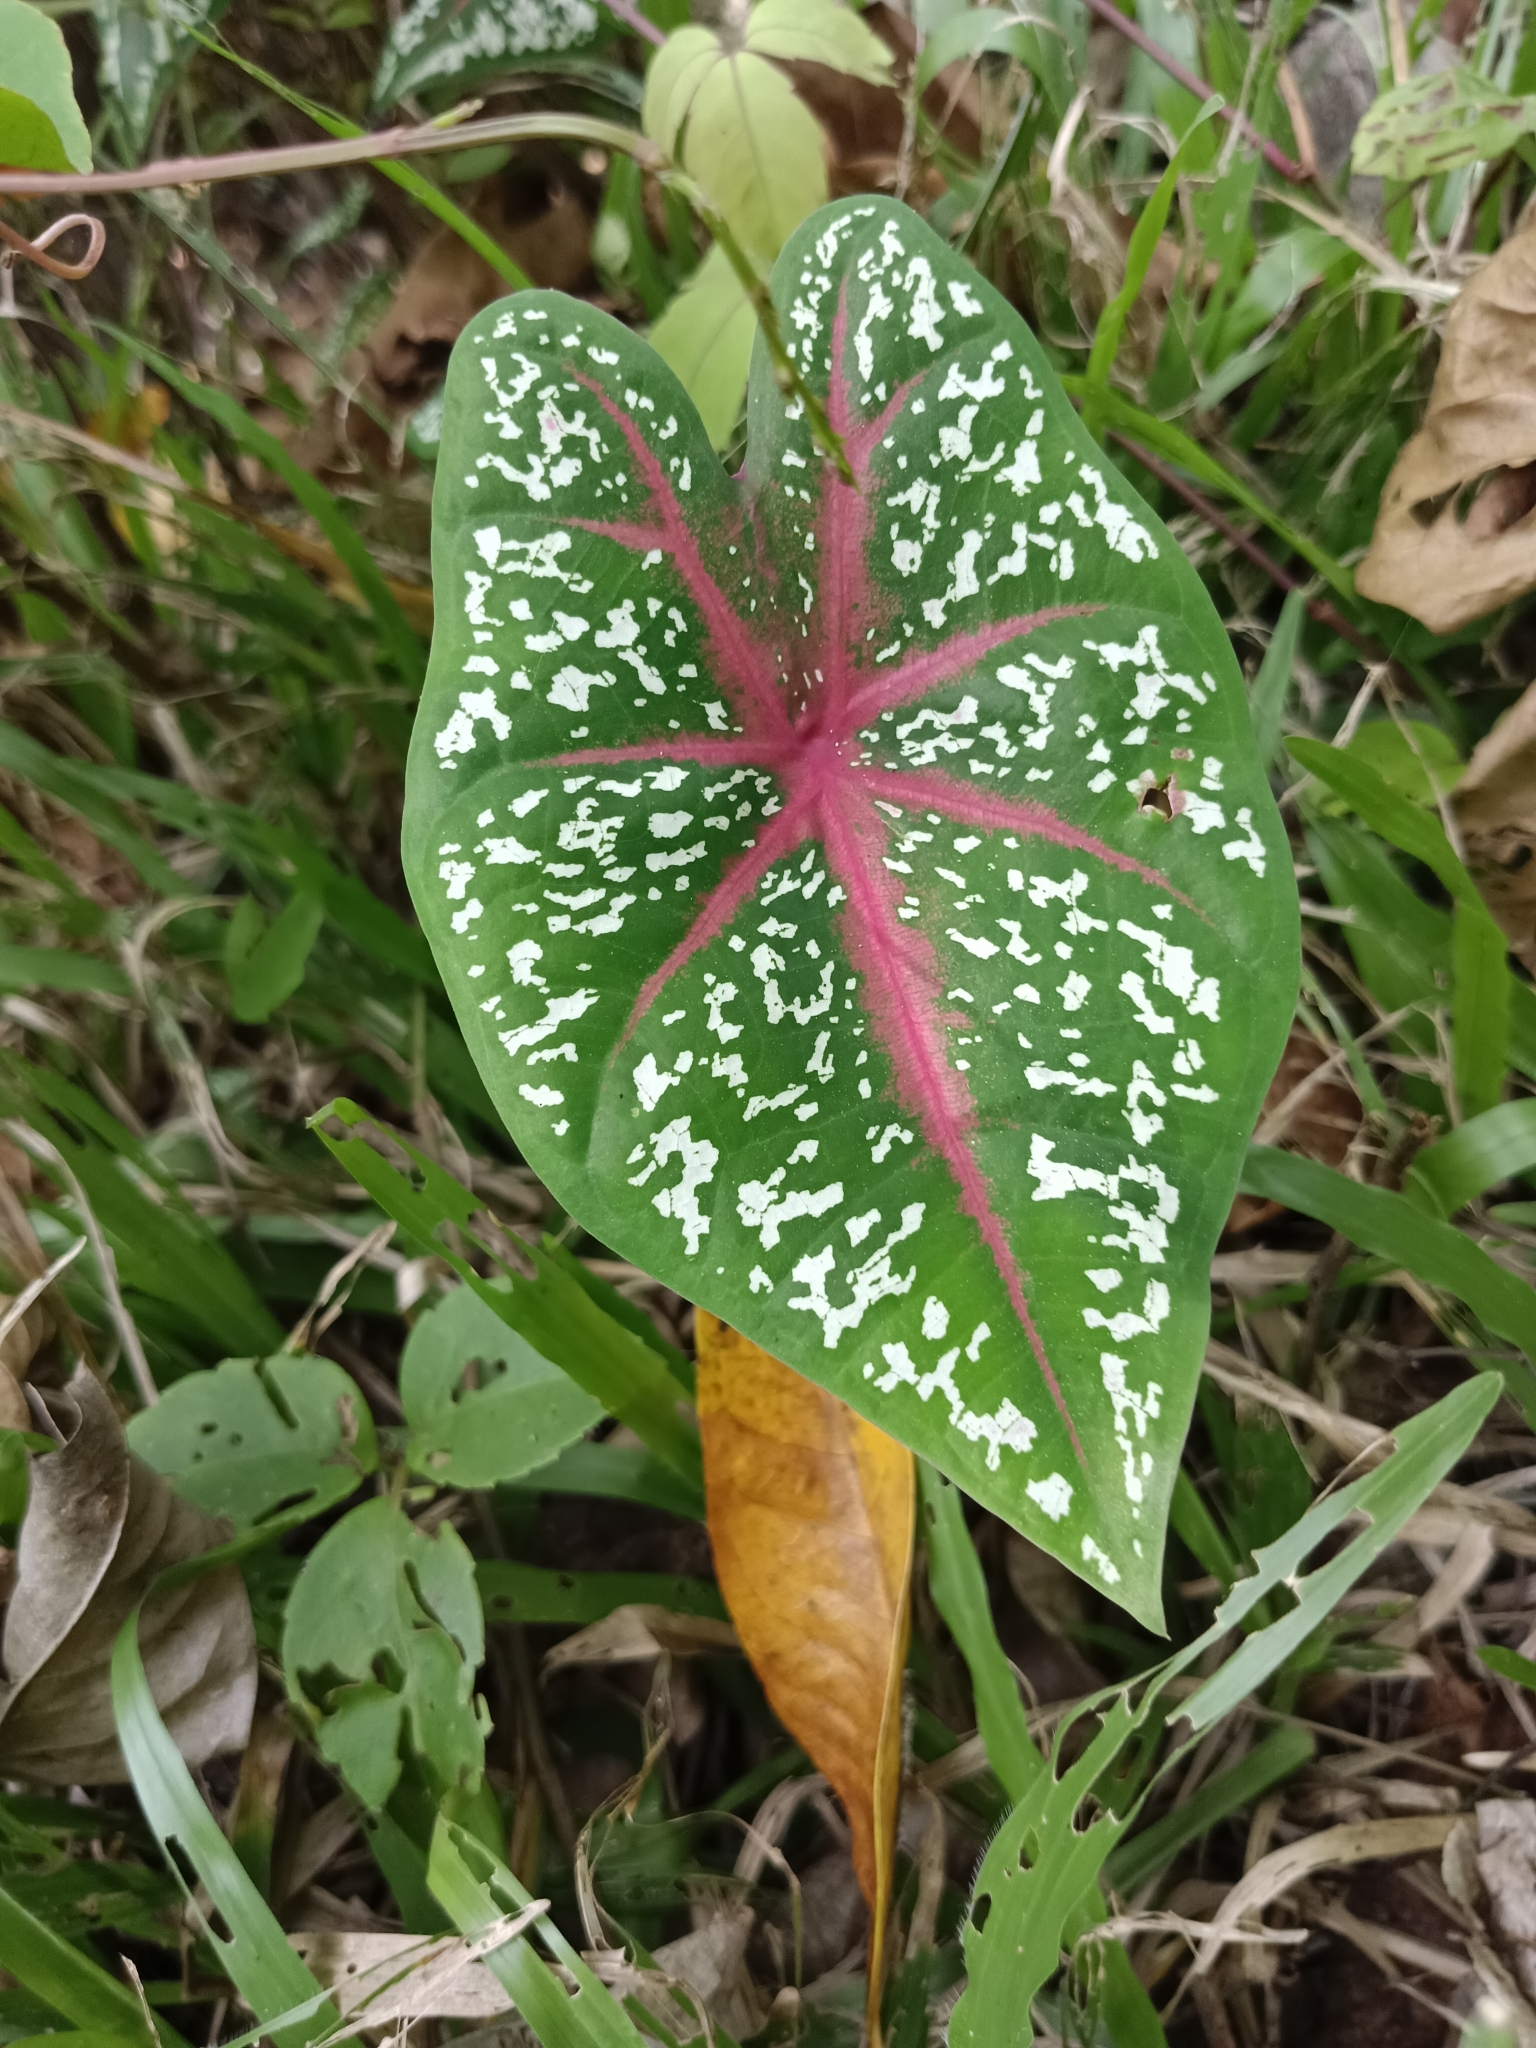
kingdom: Plantae
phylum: Tracheophyta
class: Liliopsida
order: Alismatales
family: Araceae
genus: Caladium
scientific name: Caladium bicolor
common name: Artist's pallet
